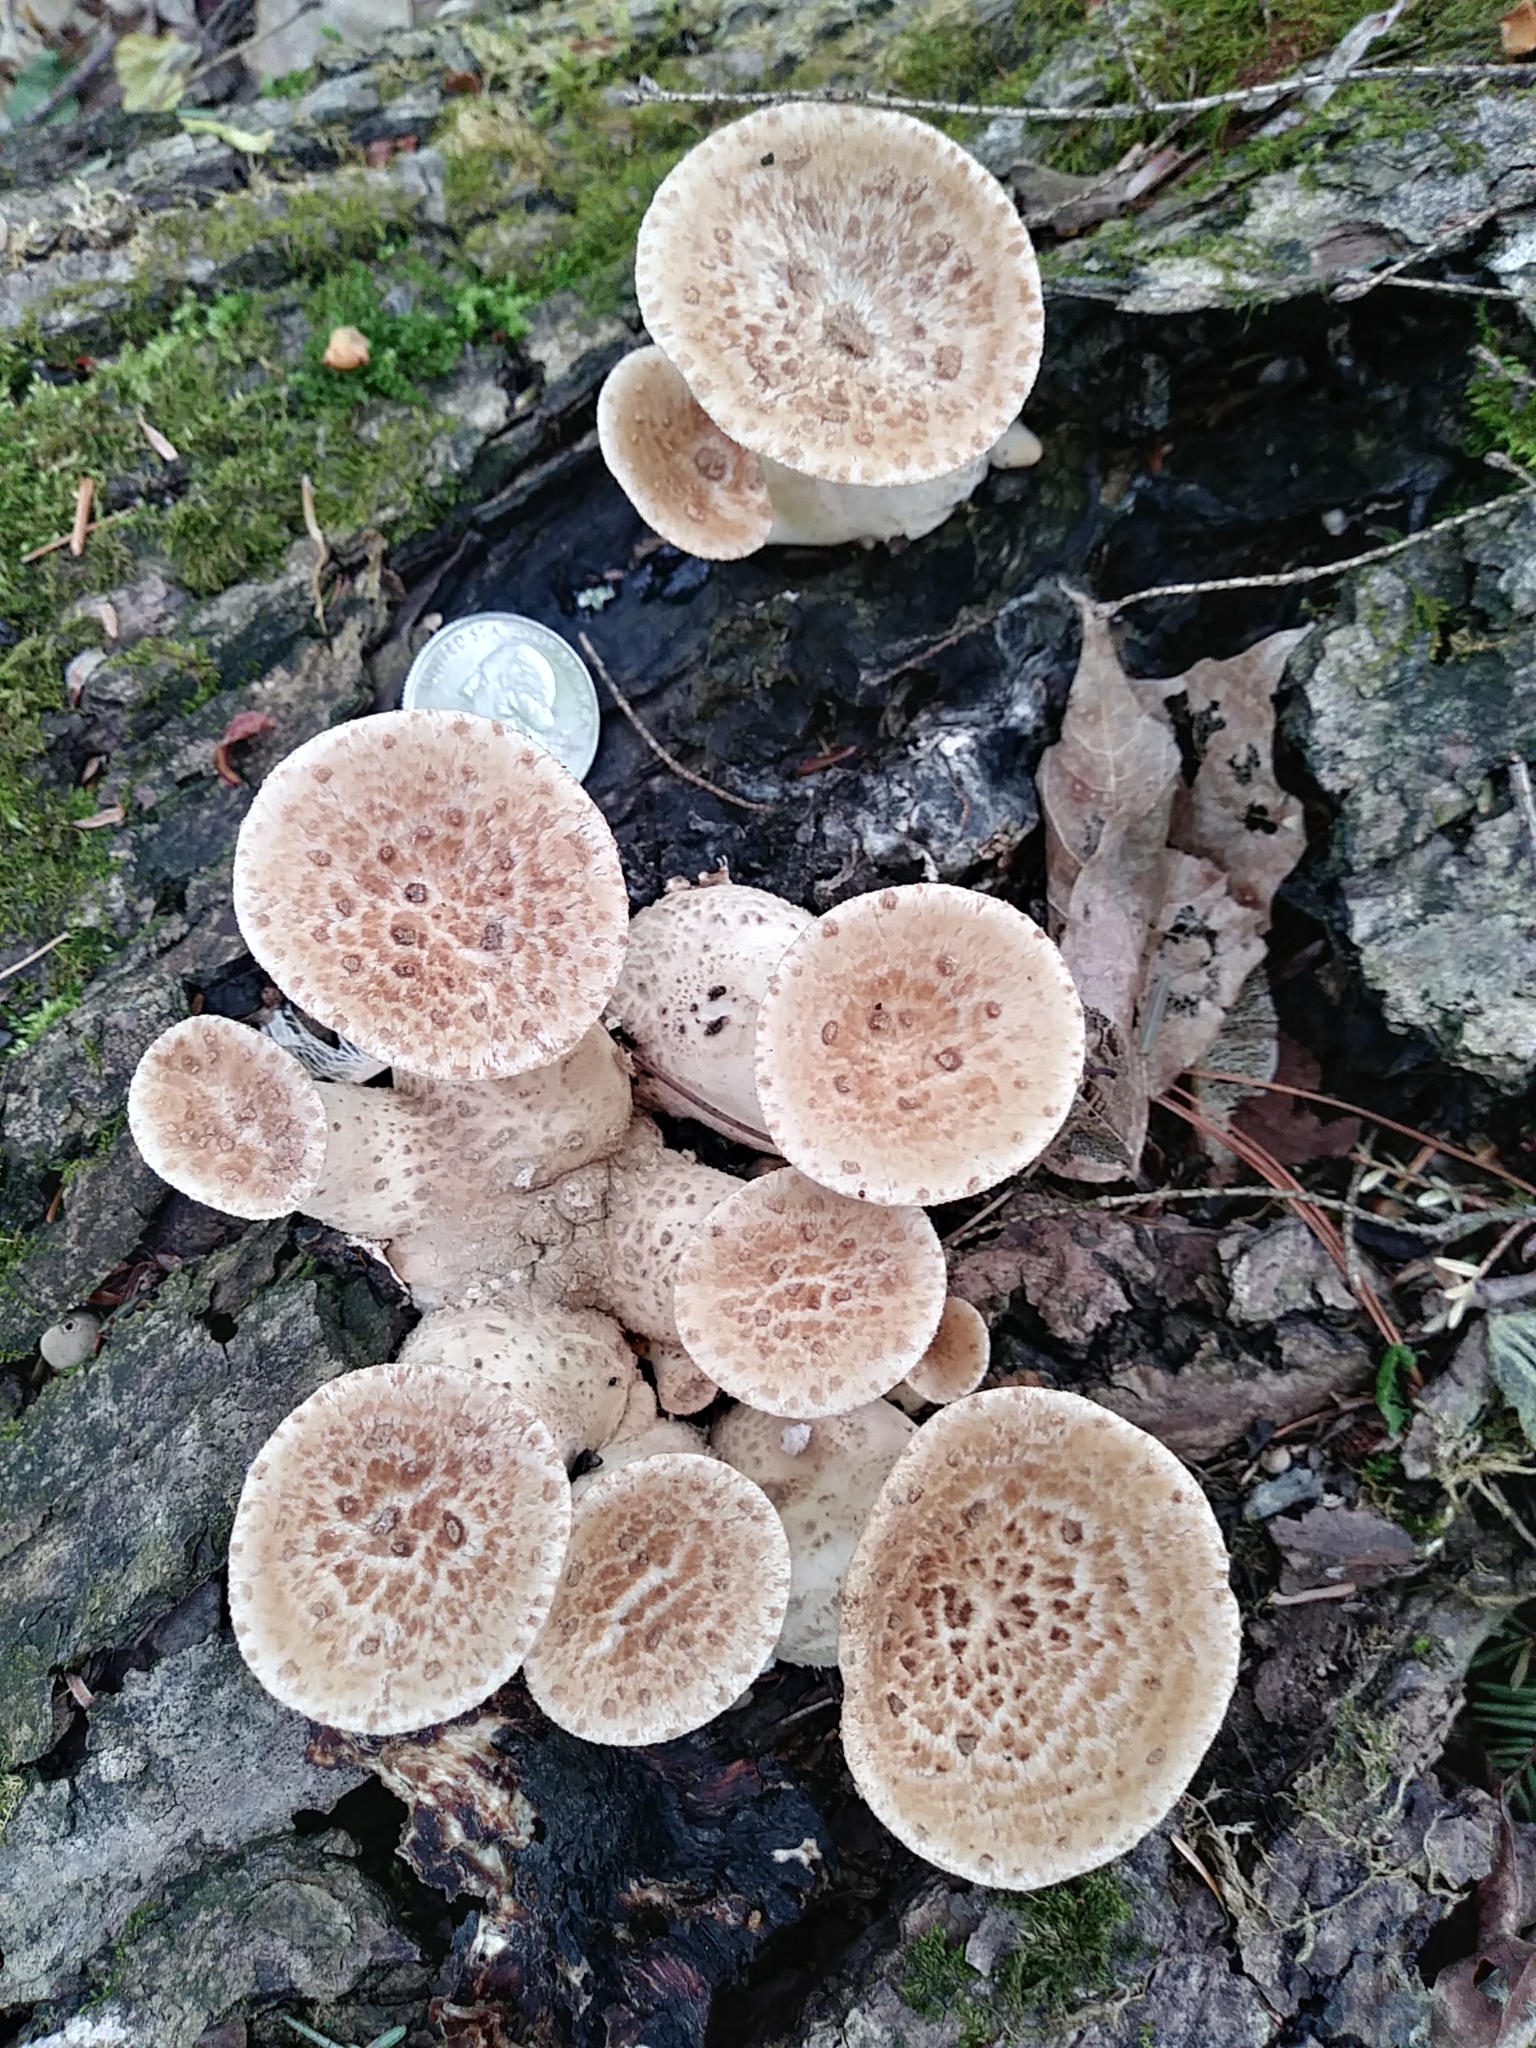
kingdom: Fungi
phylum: Basidiomycota
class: Agaricomycetes
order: Polyporales
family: Polyporaceae
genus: Cerioporus
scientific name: Cerioporus squamosus
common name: Dryad's saddle
